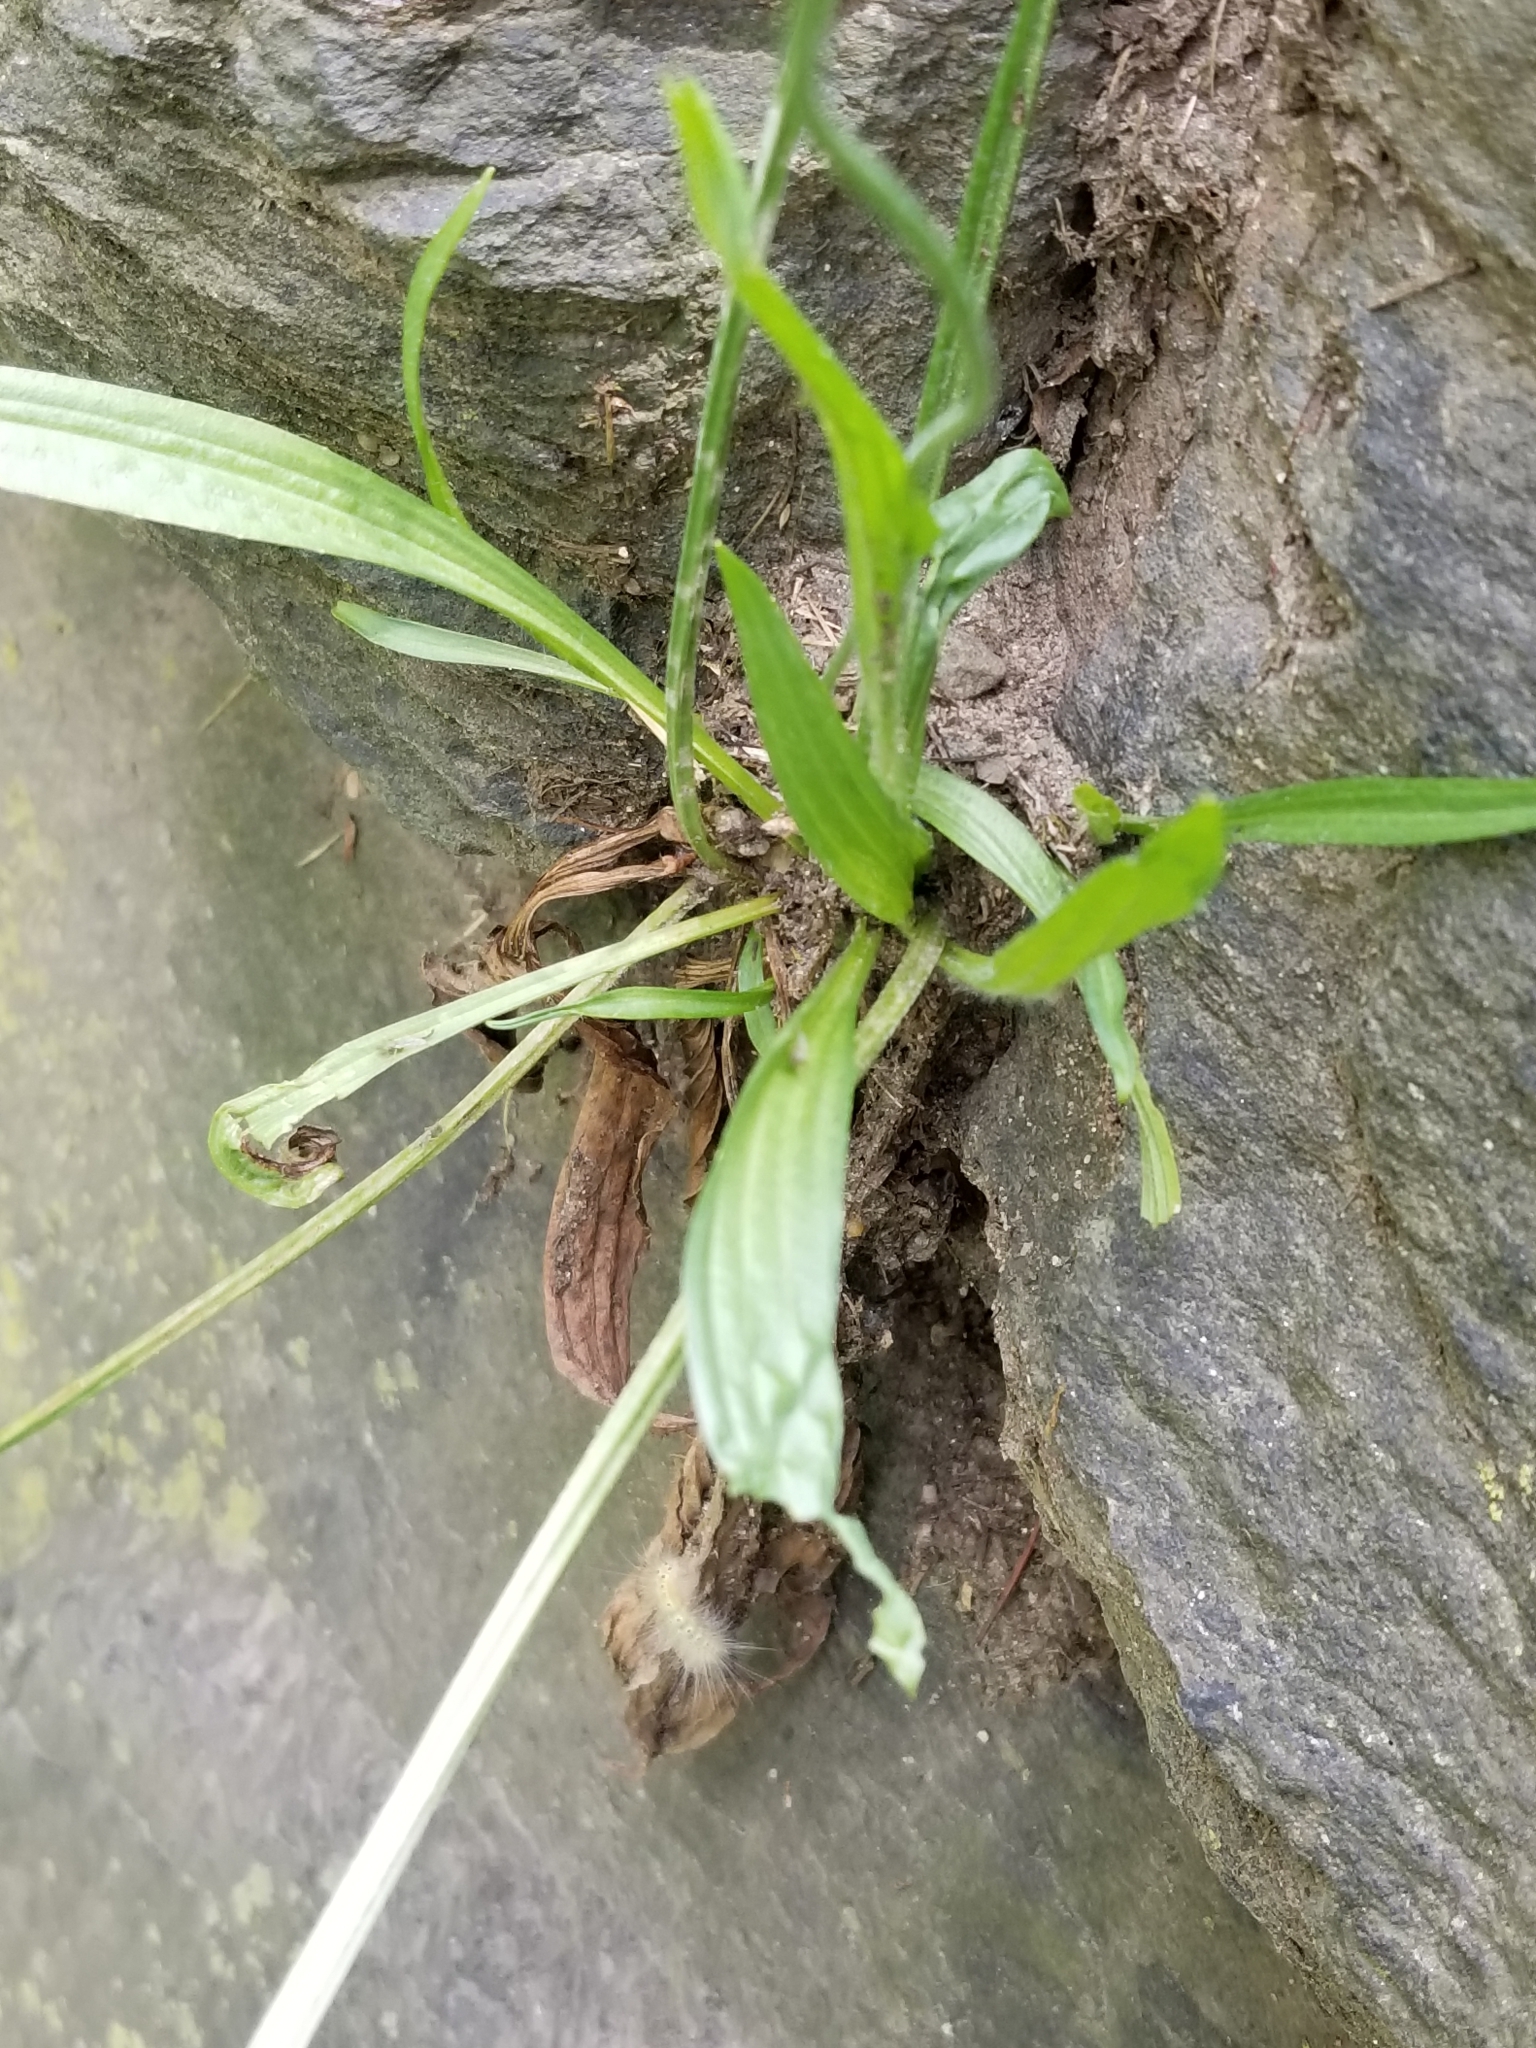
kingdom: Plantae
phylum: Tracheophyta
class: Magnoliopsida
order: Lamiales
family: Plantaginaceae
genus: Plantago
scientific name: Plantago lanceolata
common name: Ribwort plantain
